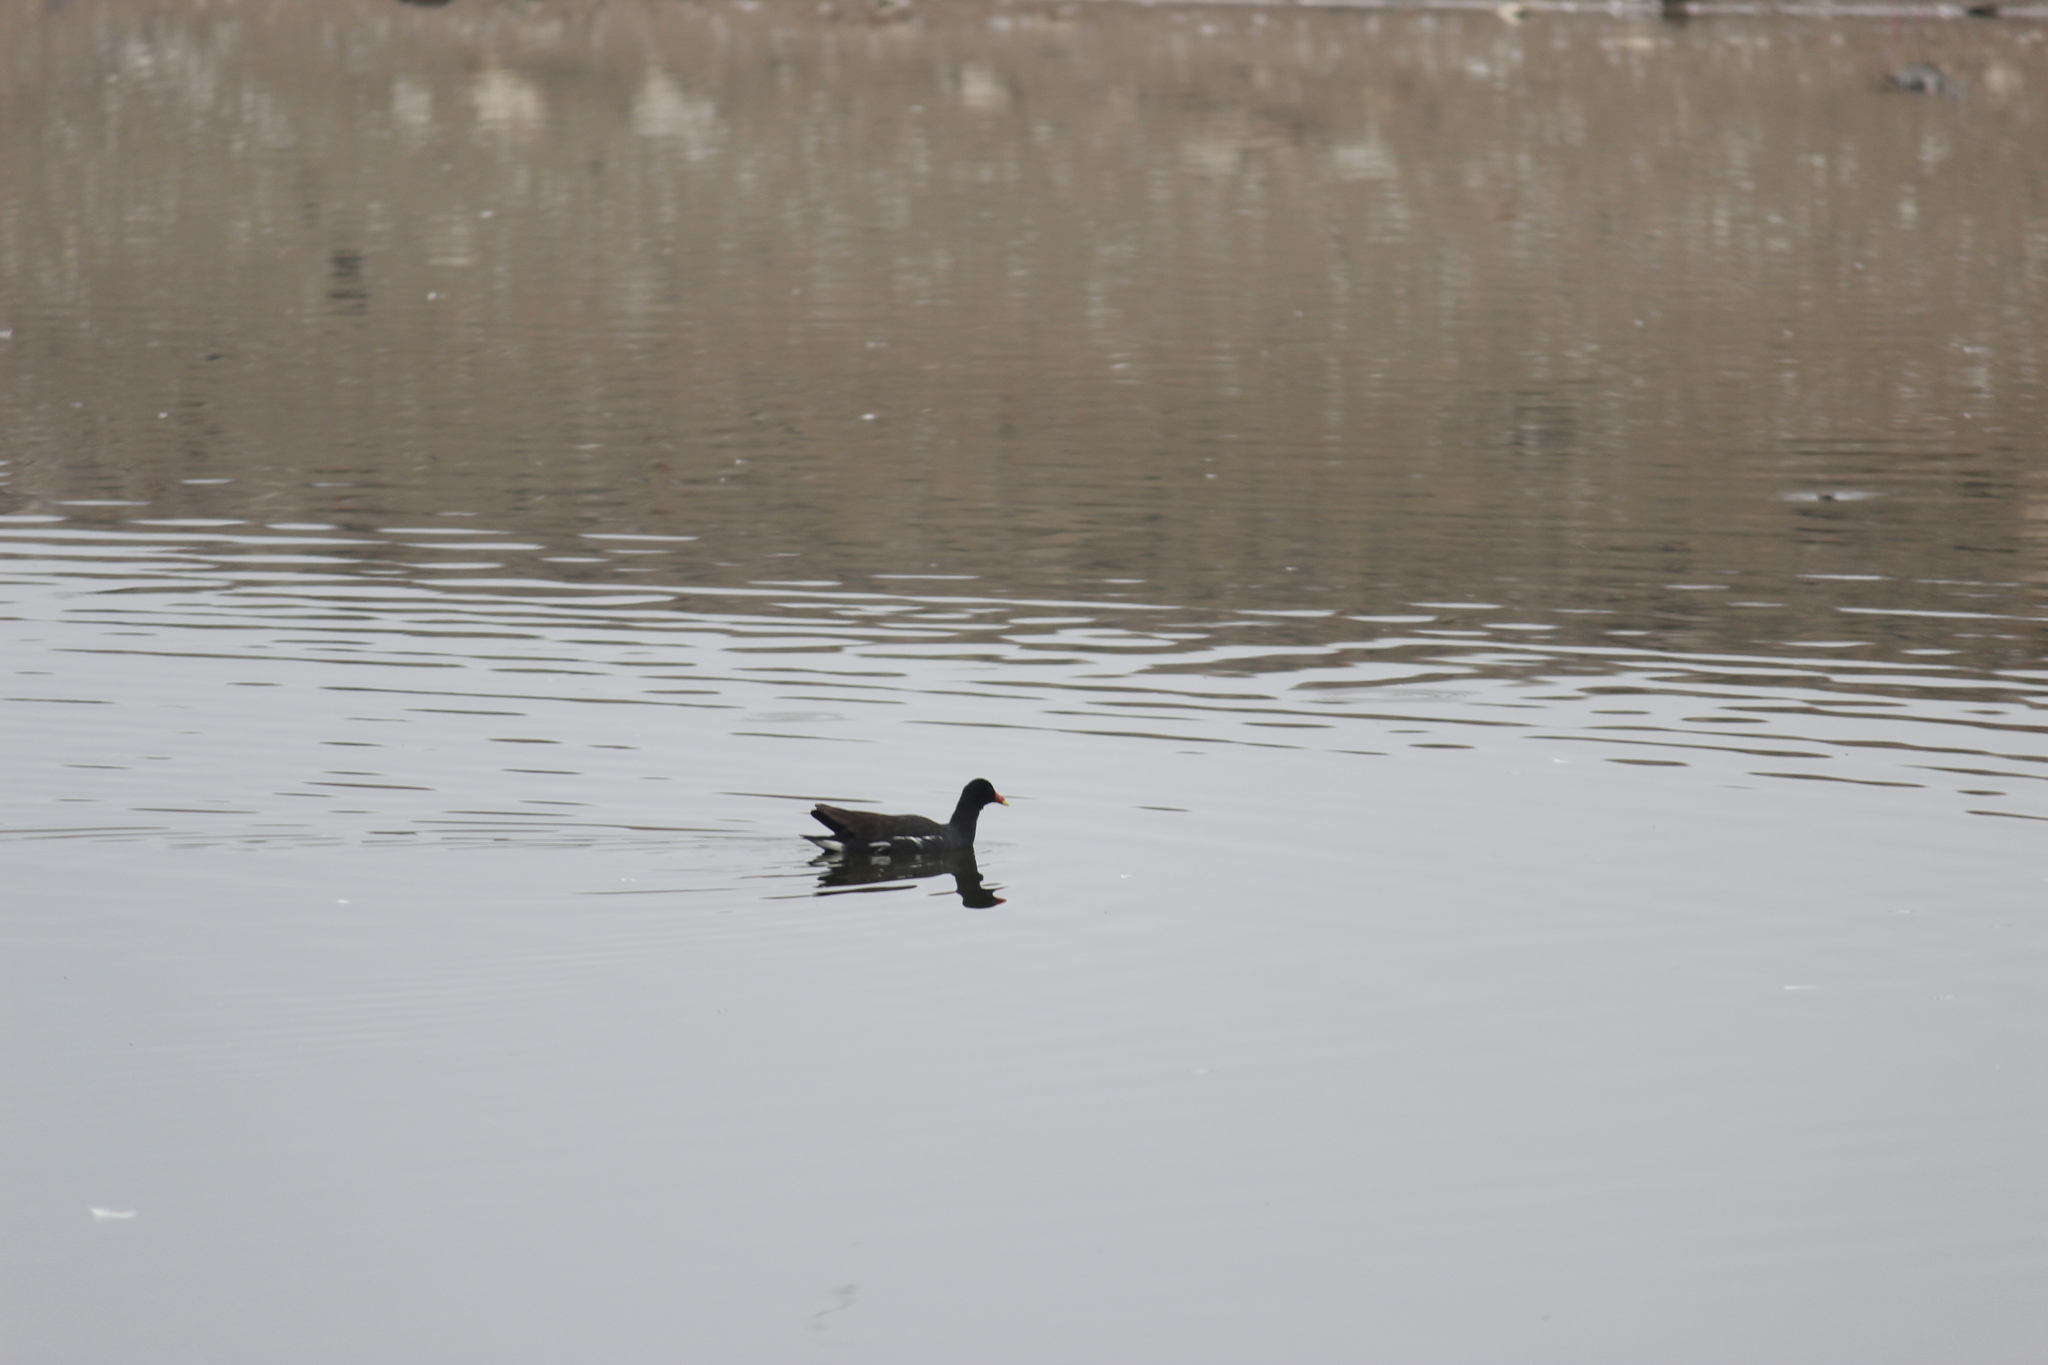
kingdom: Animalia
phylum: Chordata
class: Aves
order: Gruiformes
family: Rallidae
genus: Gallinula
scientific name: Gallinula chloropus
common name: Common moorhen
